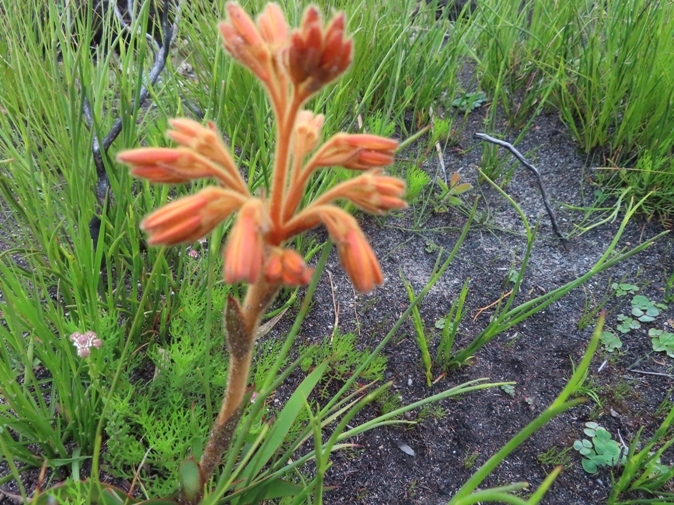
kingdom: Plantae
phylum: Tracheophyta
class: Liliopsida
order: Commelinales
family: Haemodoraceae
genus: Dilatris
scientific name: Dilatris viscosa
